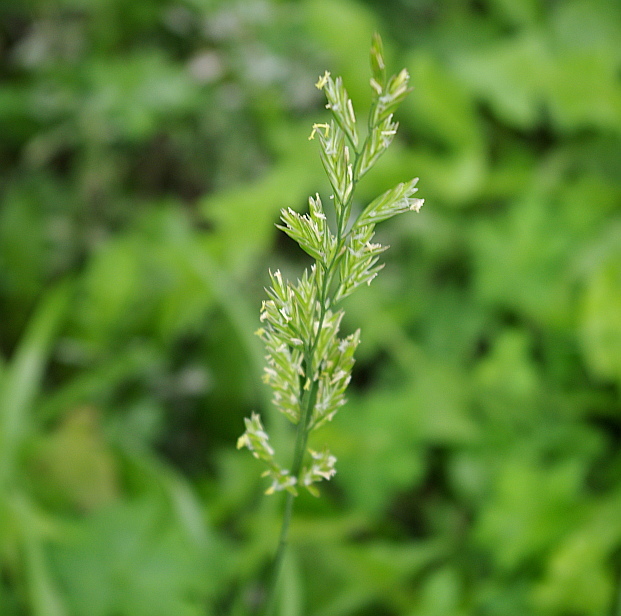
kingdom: Plantae
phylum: Tracheophyta
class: Liliopsida
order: Poales
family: Poaceae
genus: Lolium
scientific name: Lolium perenne
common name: Perennial ryegrass
